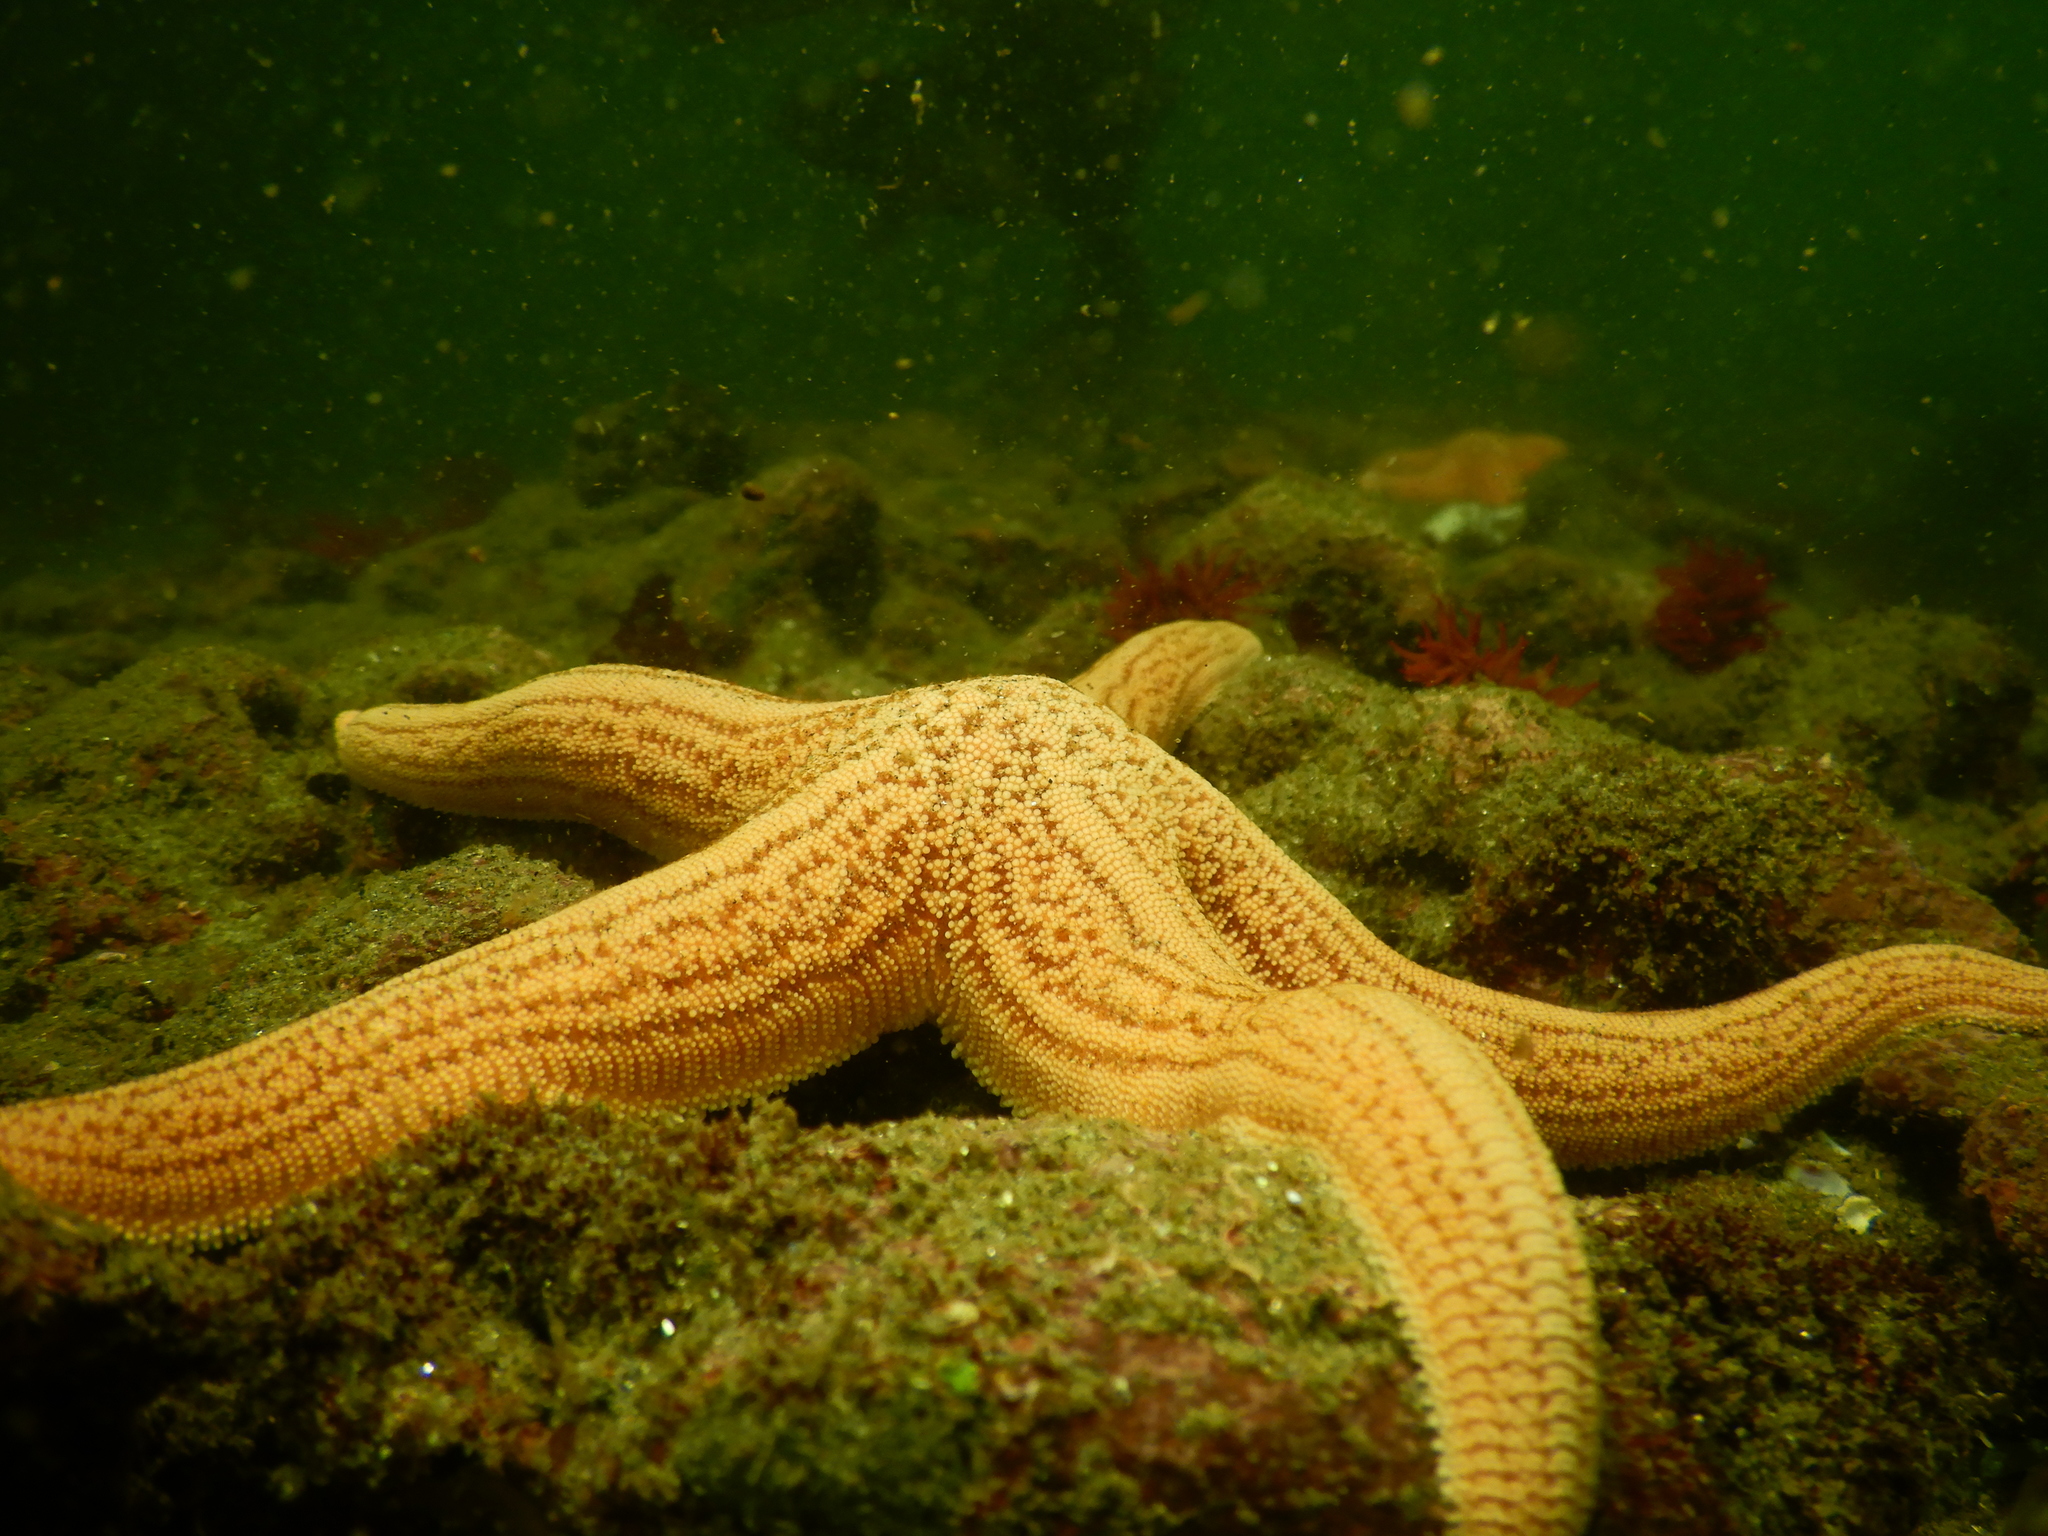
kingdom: Animalia
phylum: Echinodermata
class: Asteroidea
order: Forcipulatida
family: Stichasteridae
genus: Stichaster
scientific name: Stichaster striatus
